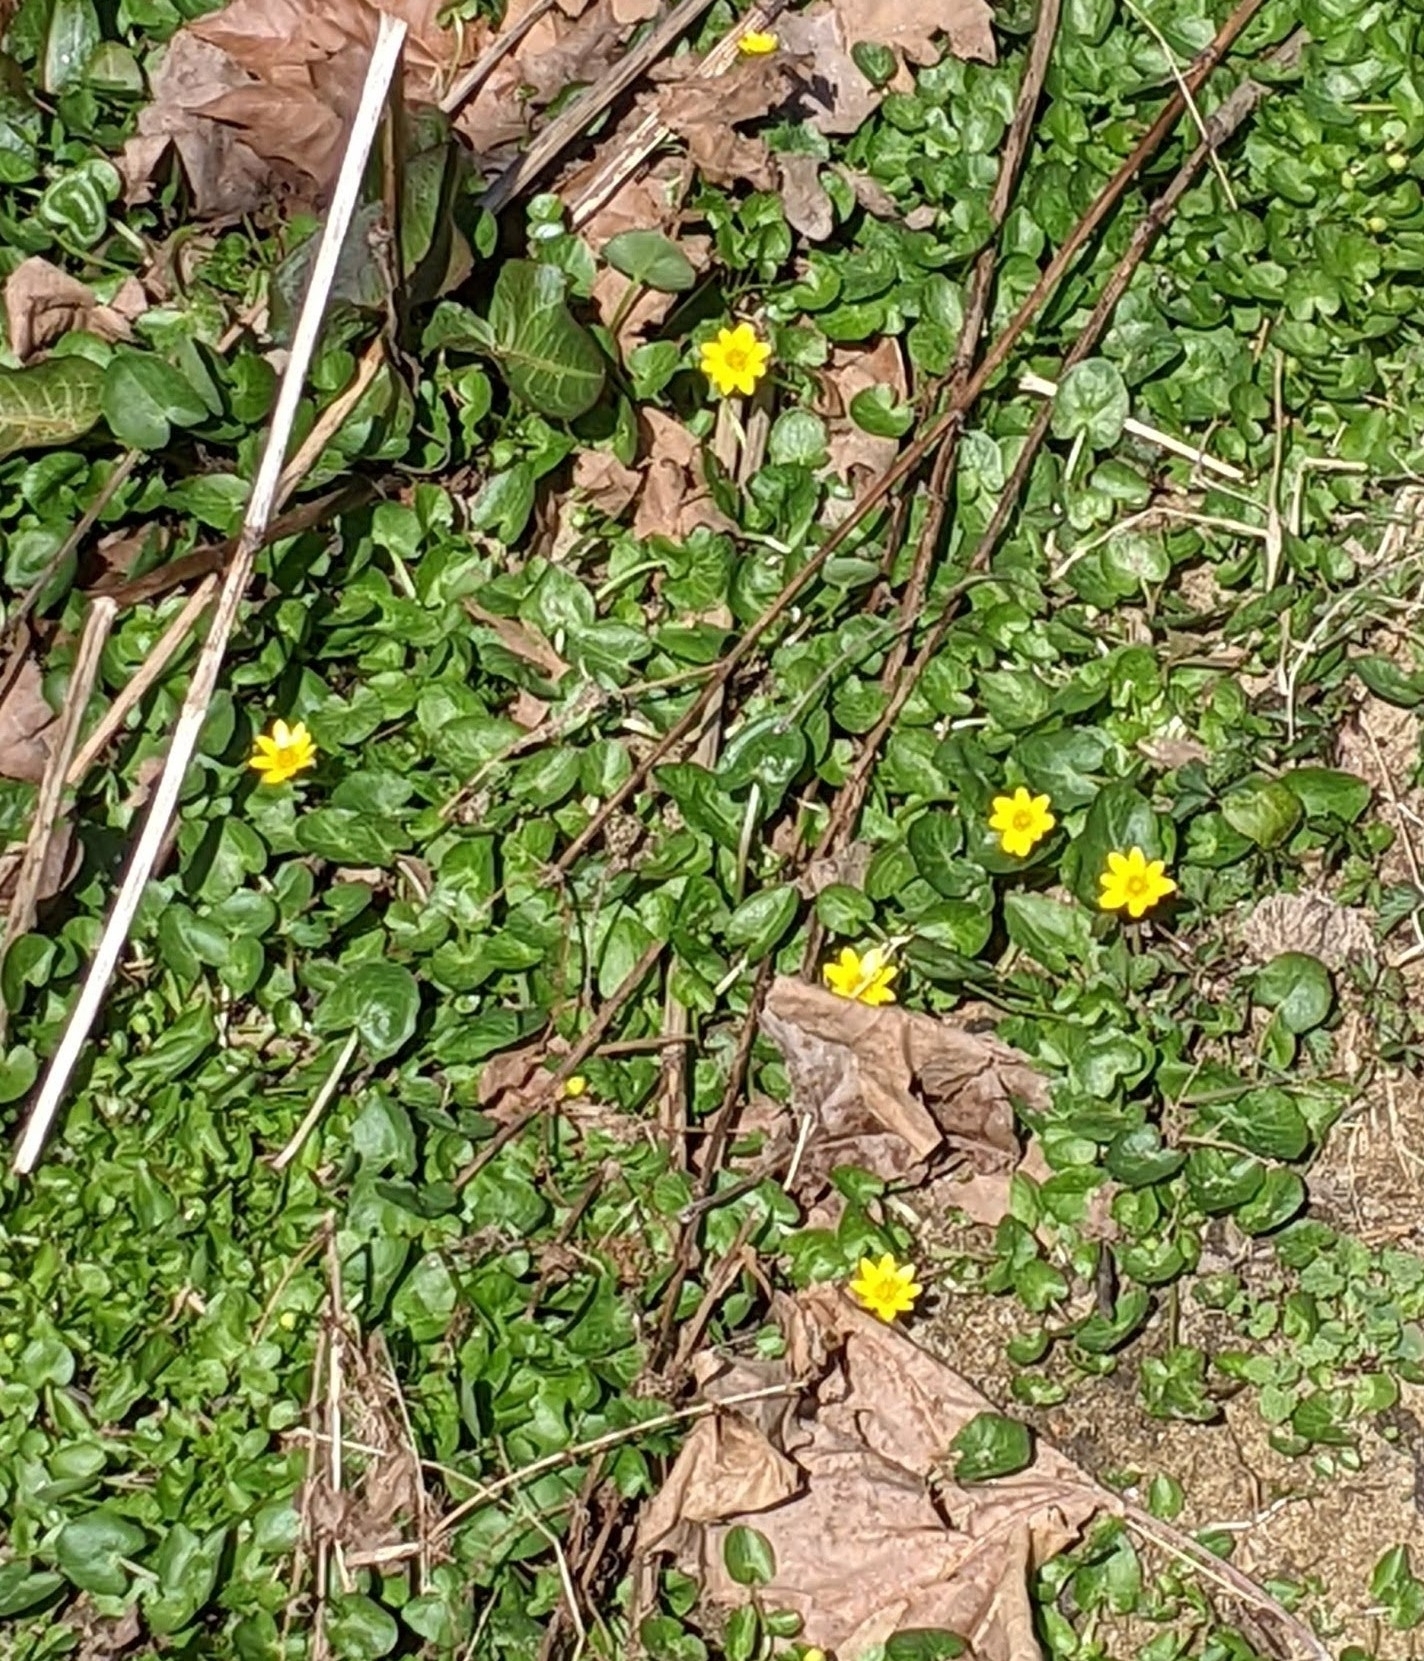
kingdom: Plantae
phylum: Tracheophyta
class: Magnoliopsida
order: Ranunculales
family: Ranunculaceae
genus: Ficaria
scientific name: Ficaria verna
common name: Lesser celandine
